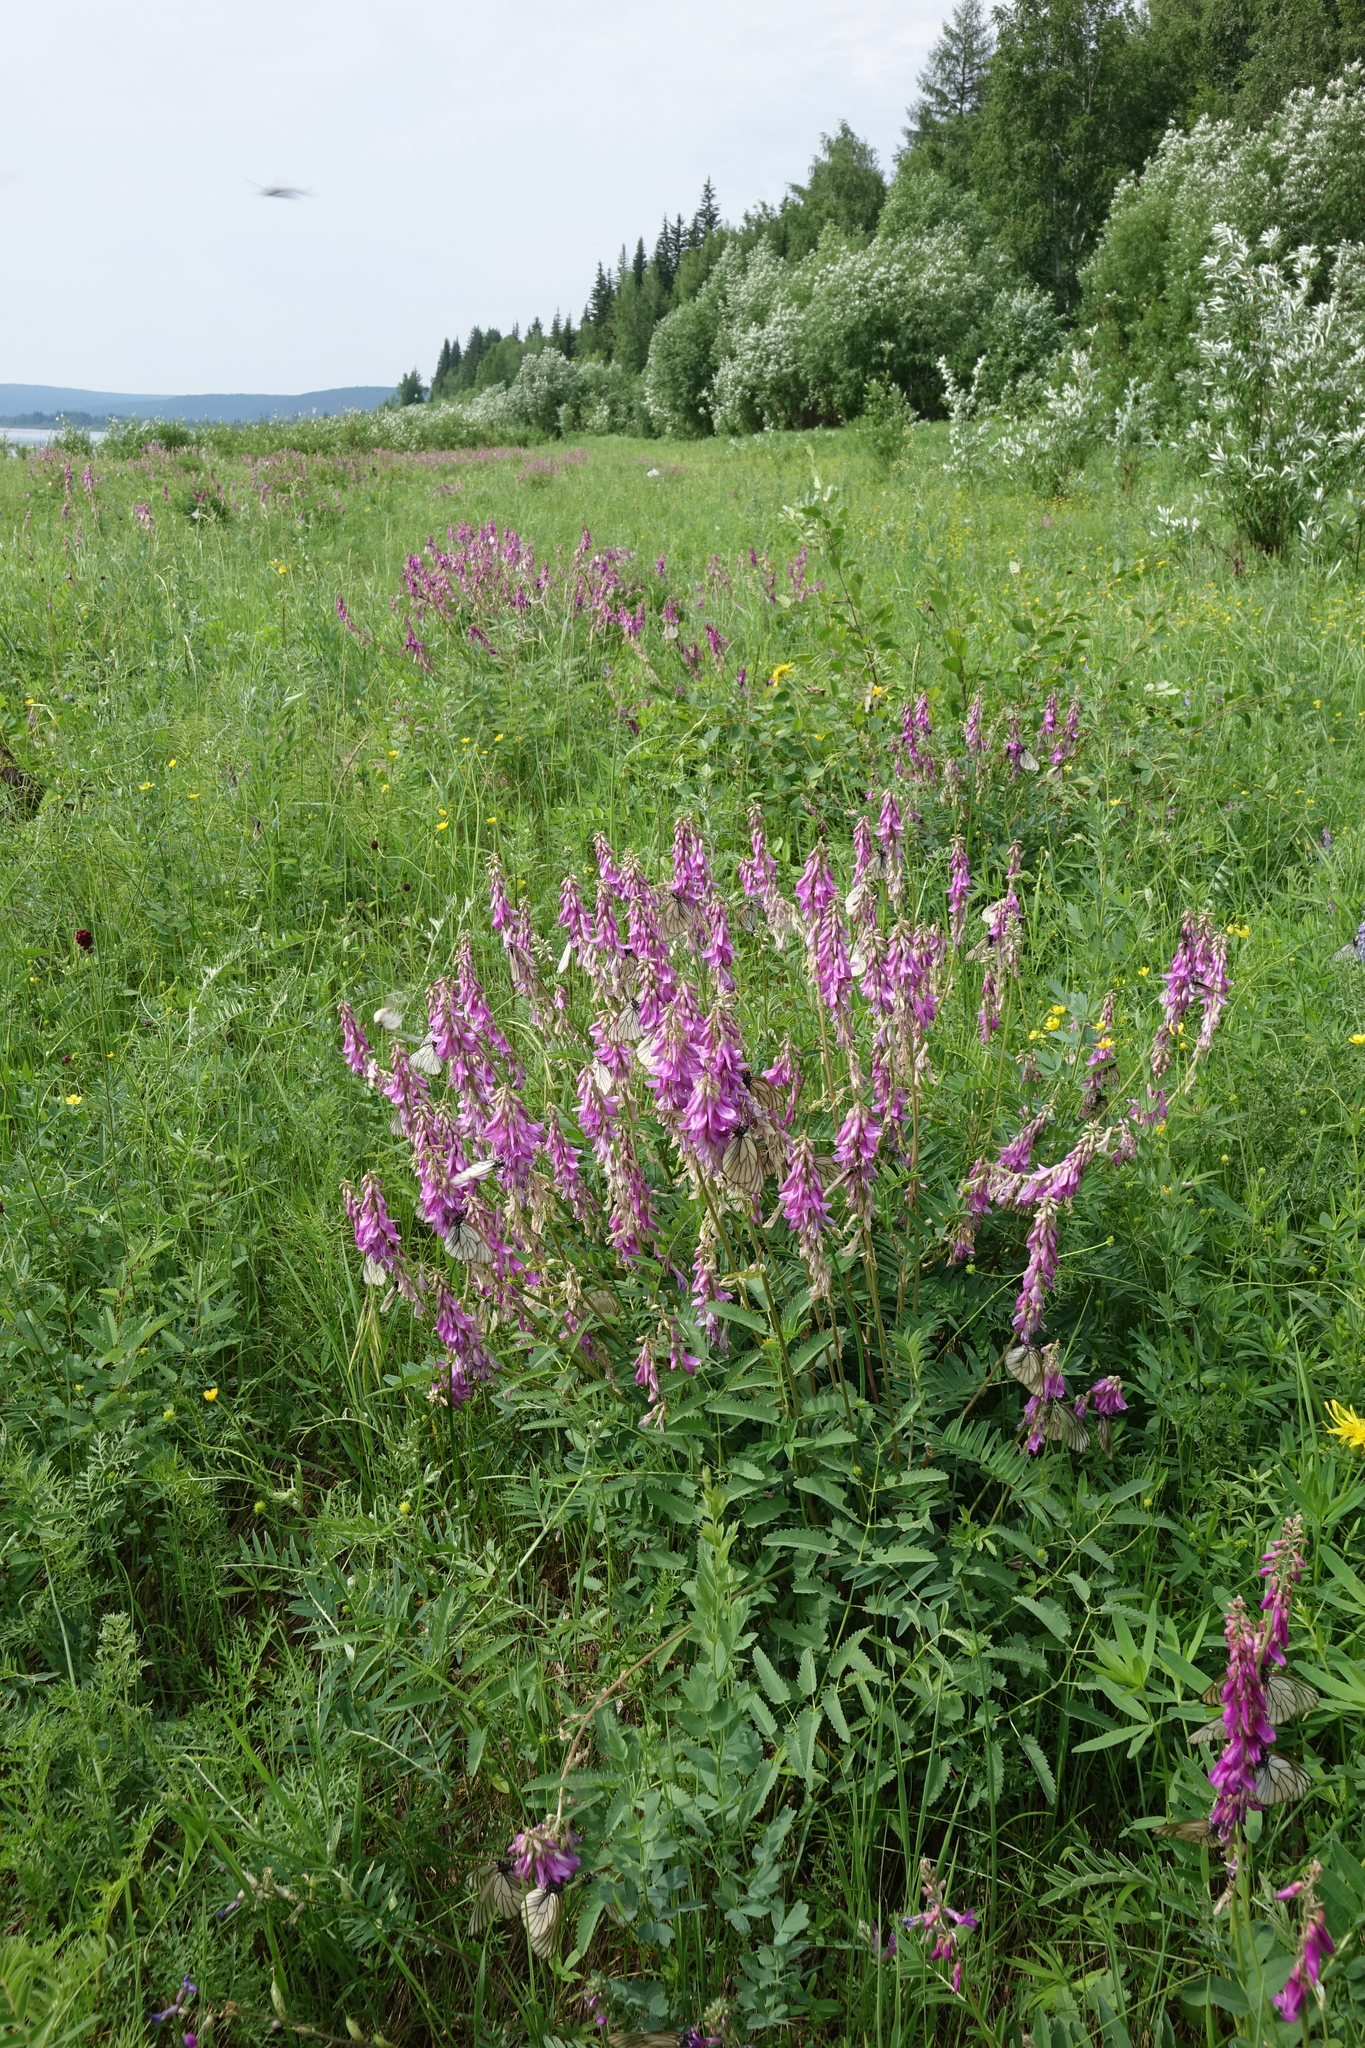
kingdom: Plantae
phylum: Tracheophyta
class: Magnoliopsida
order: Fabales
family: Fabaceae
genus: Hedysarum
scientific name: Hedysarum branthii
